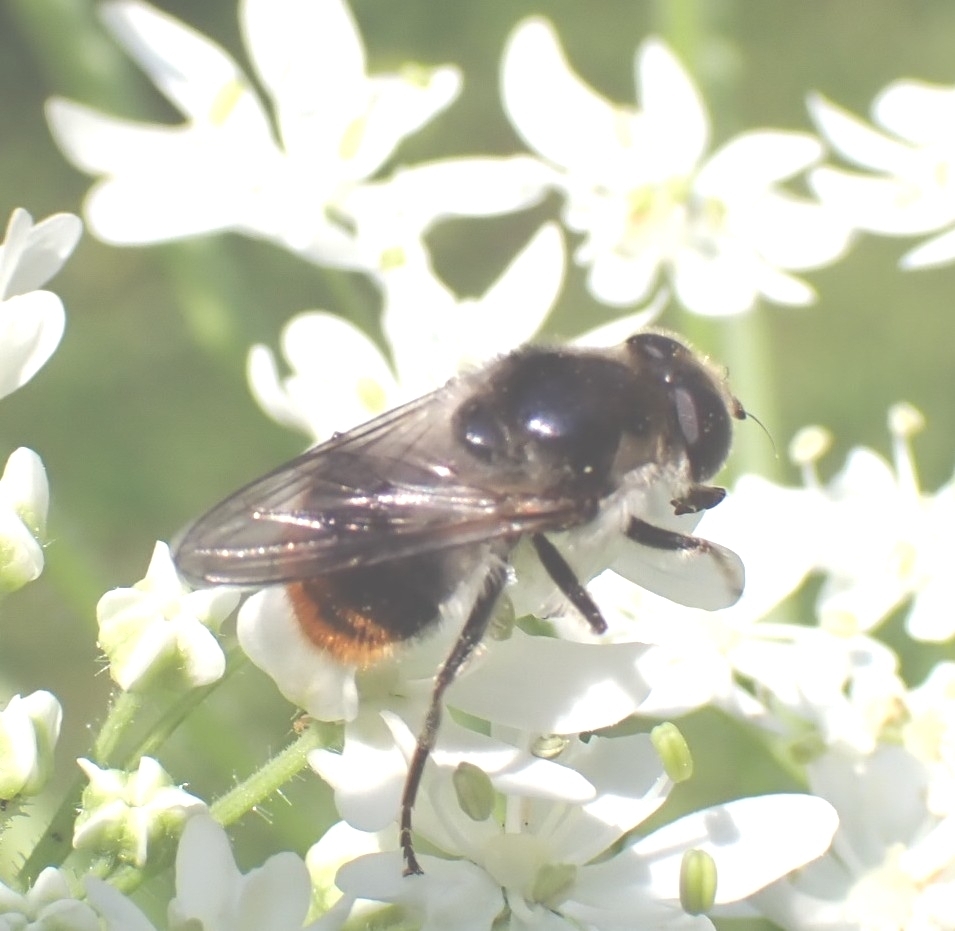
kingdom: Animalia
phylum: Arthropoda
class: Insecta
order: Diptera
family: Syrphidae
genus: Cheilosia
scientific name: Cheilosia illustrata
